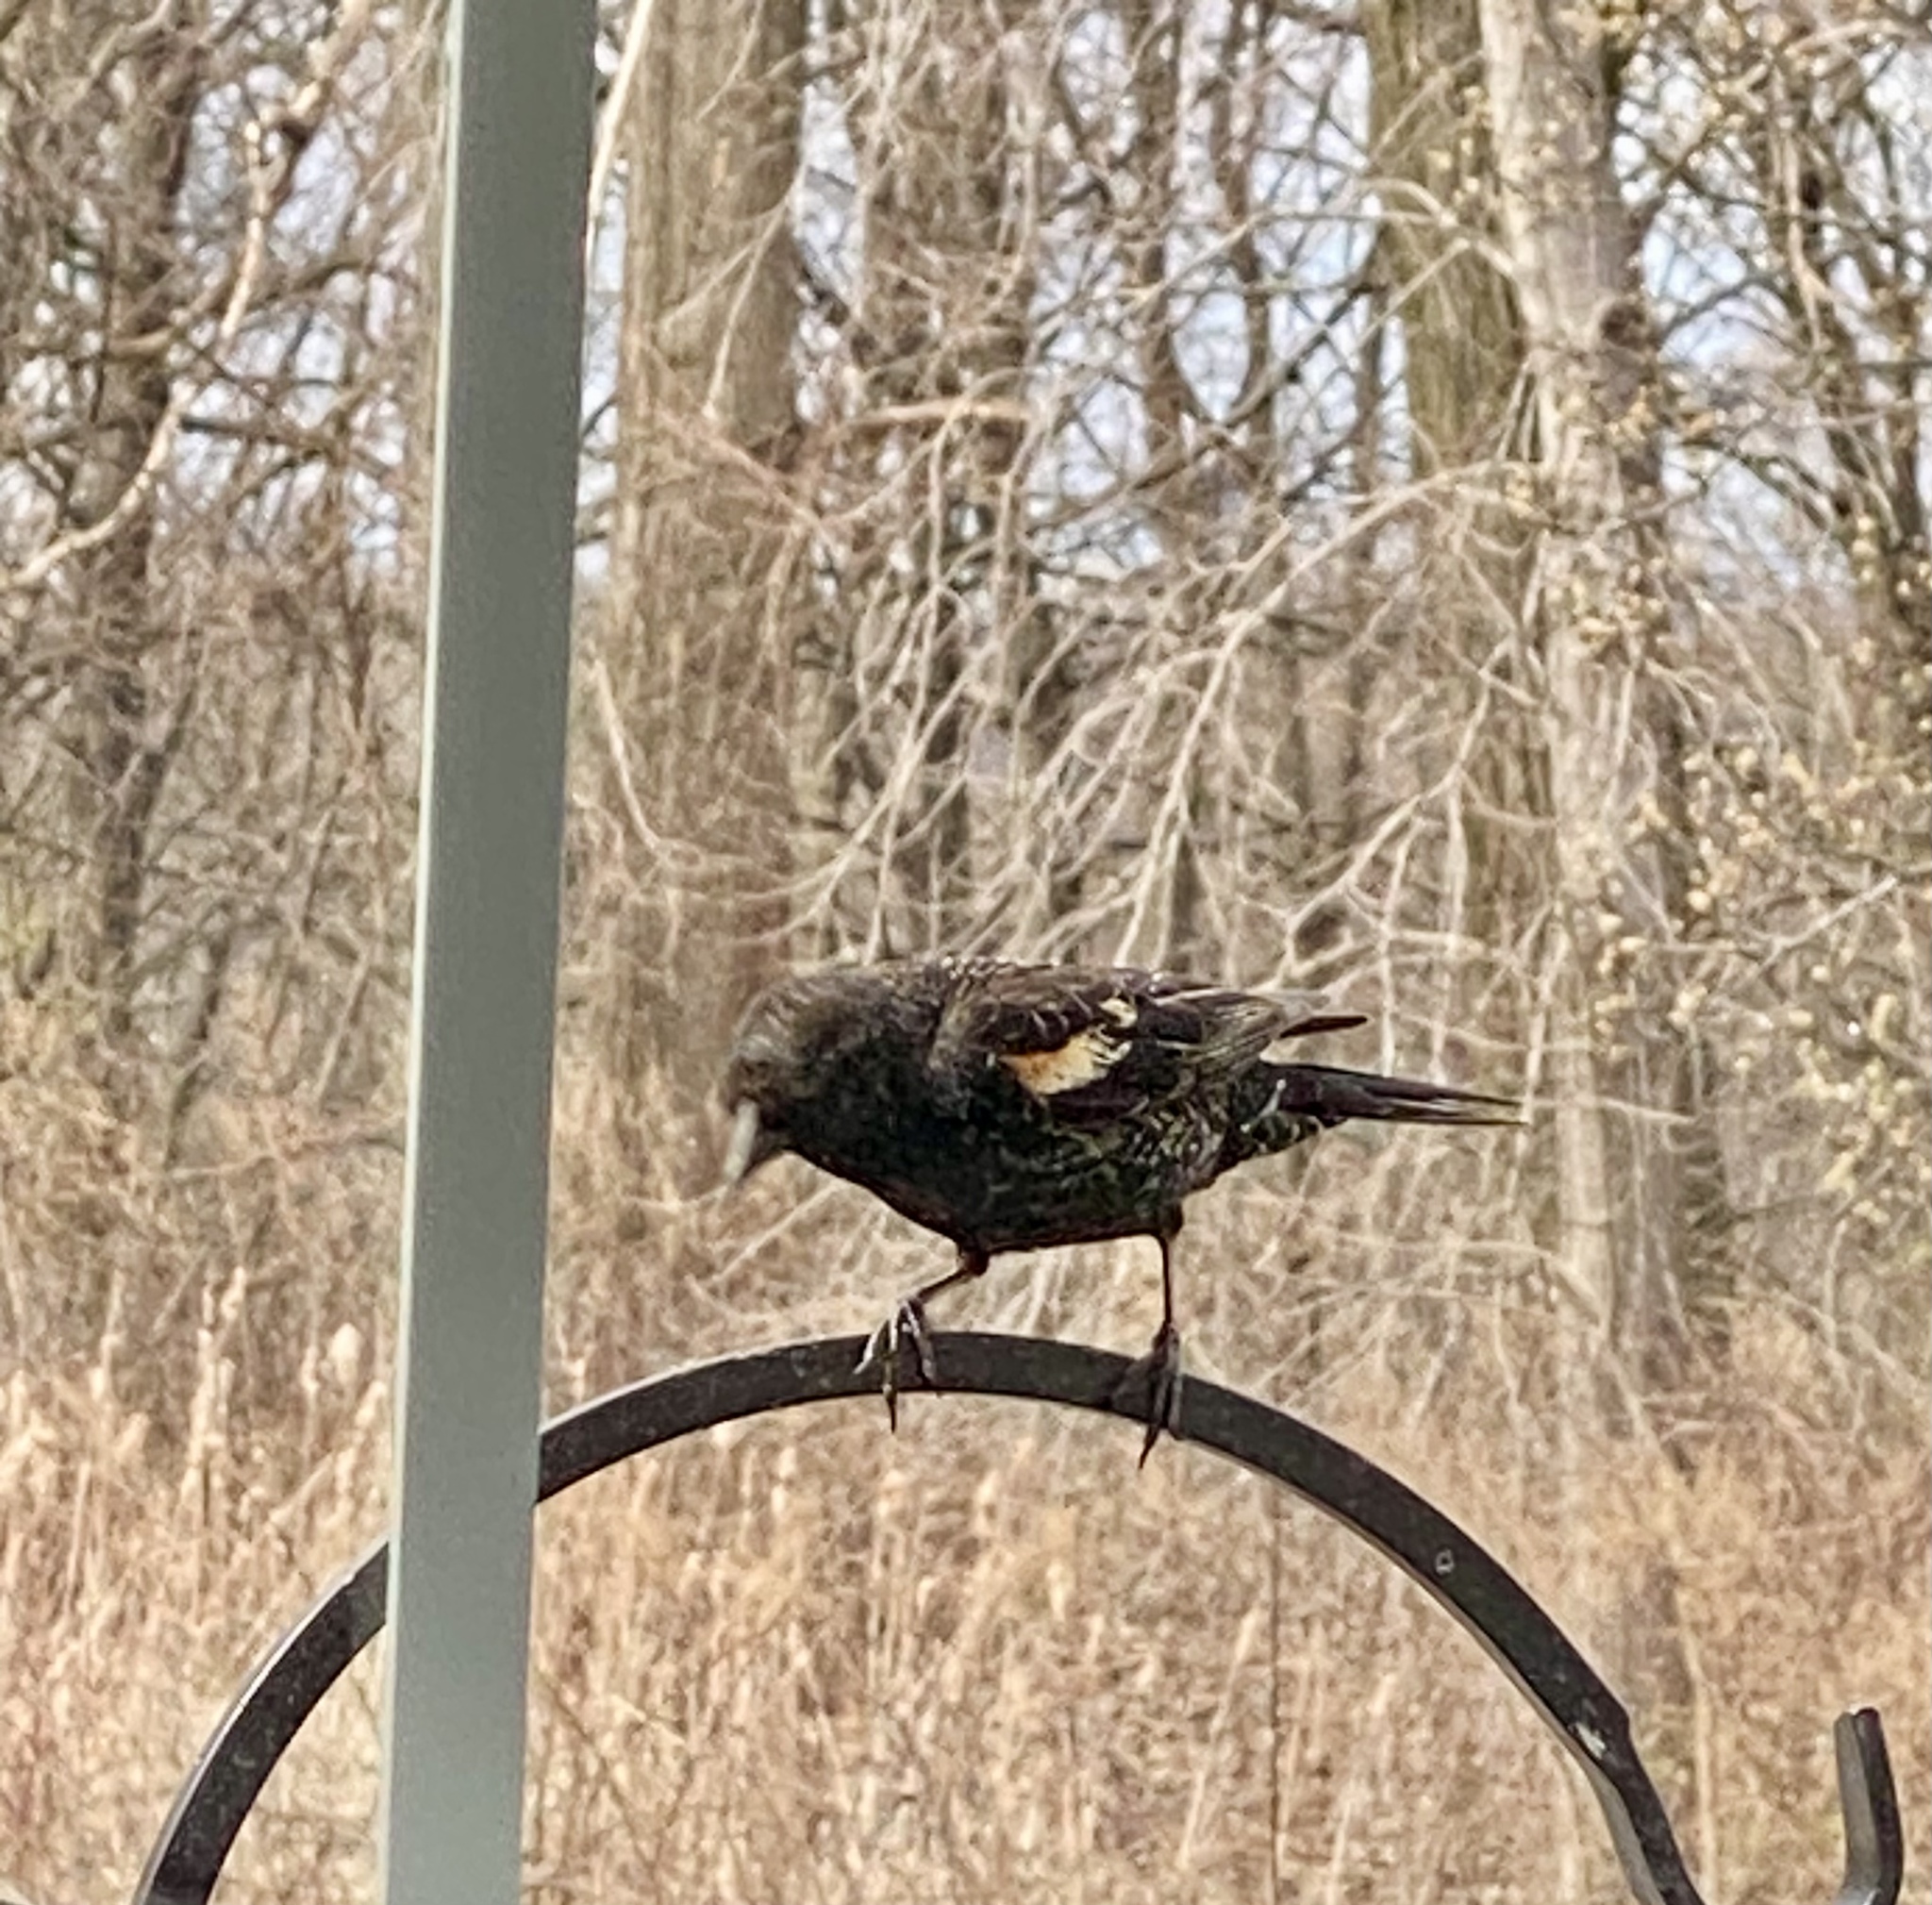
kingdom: Animalia
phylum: Chordata
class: Aves
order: Passeriformes
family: Icteridae
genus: Agelaius
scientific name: Agelaius phoeniceus
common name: Red-winged blackbird
